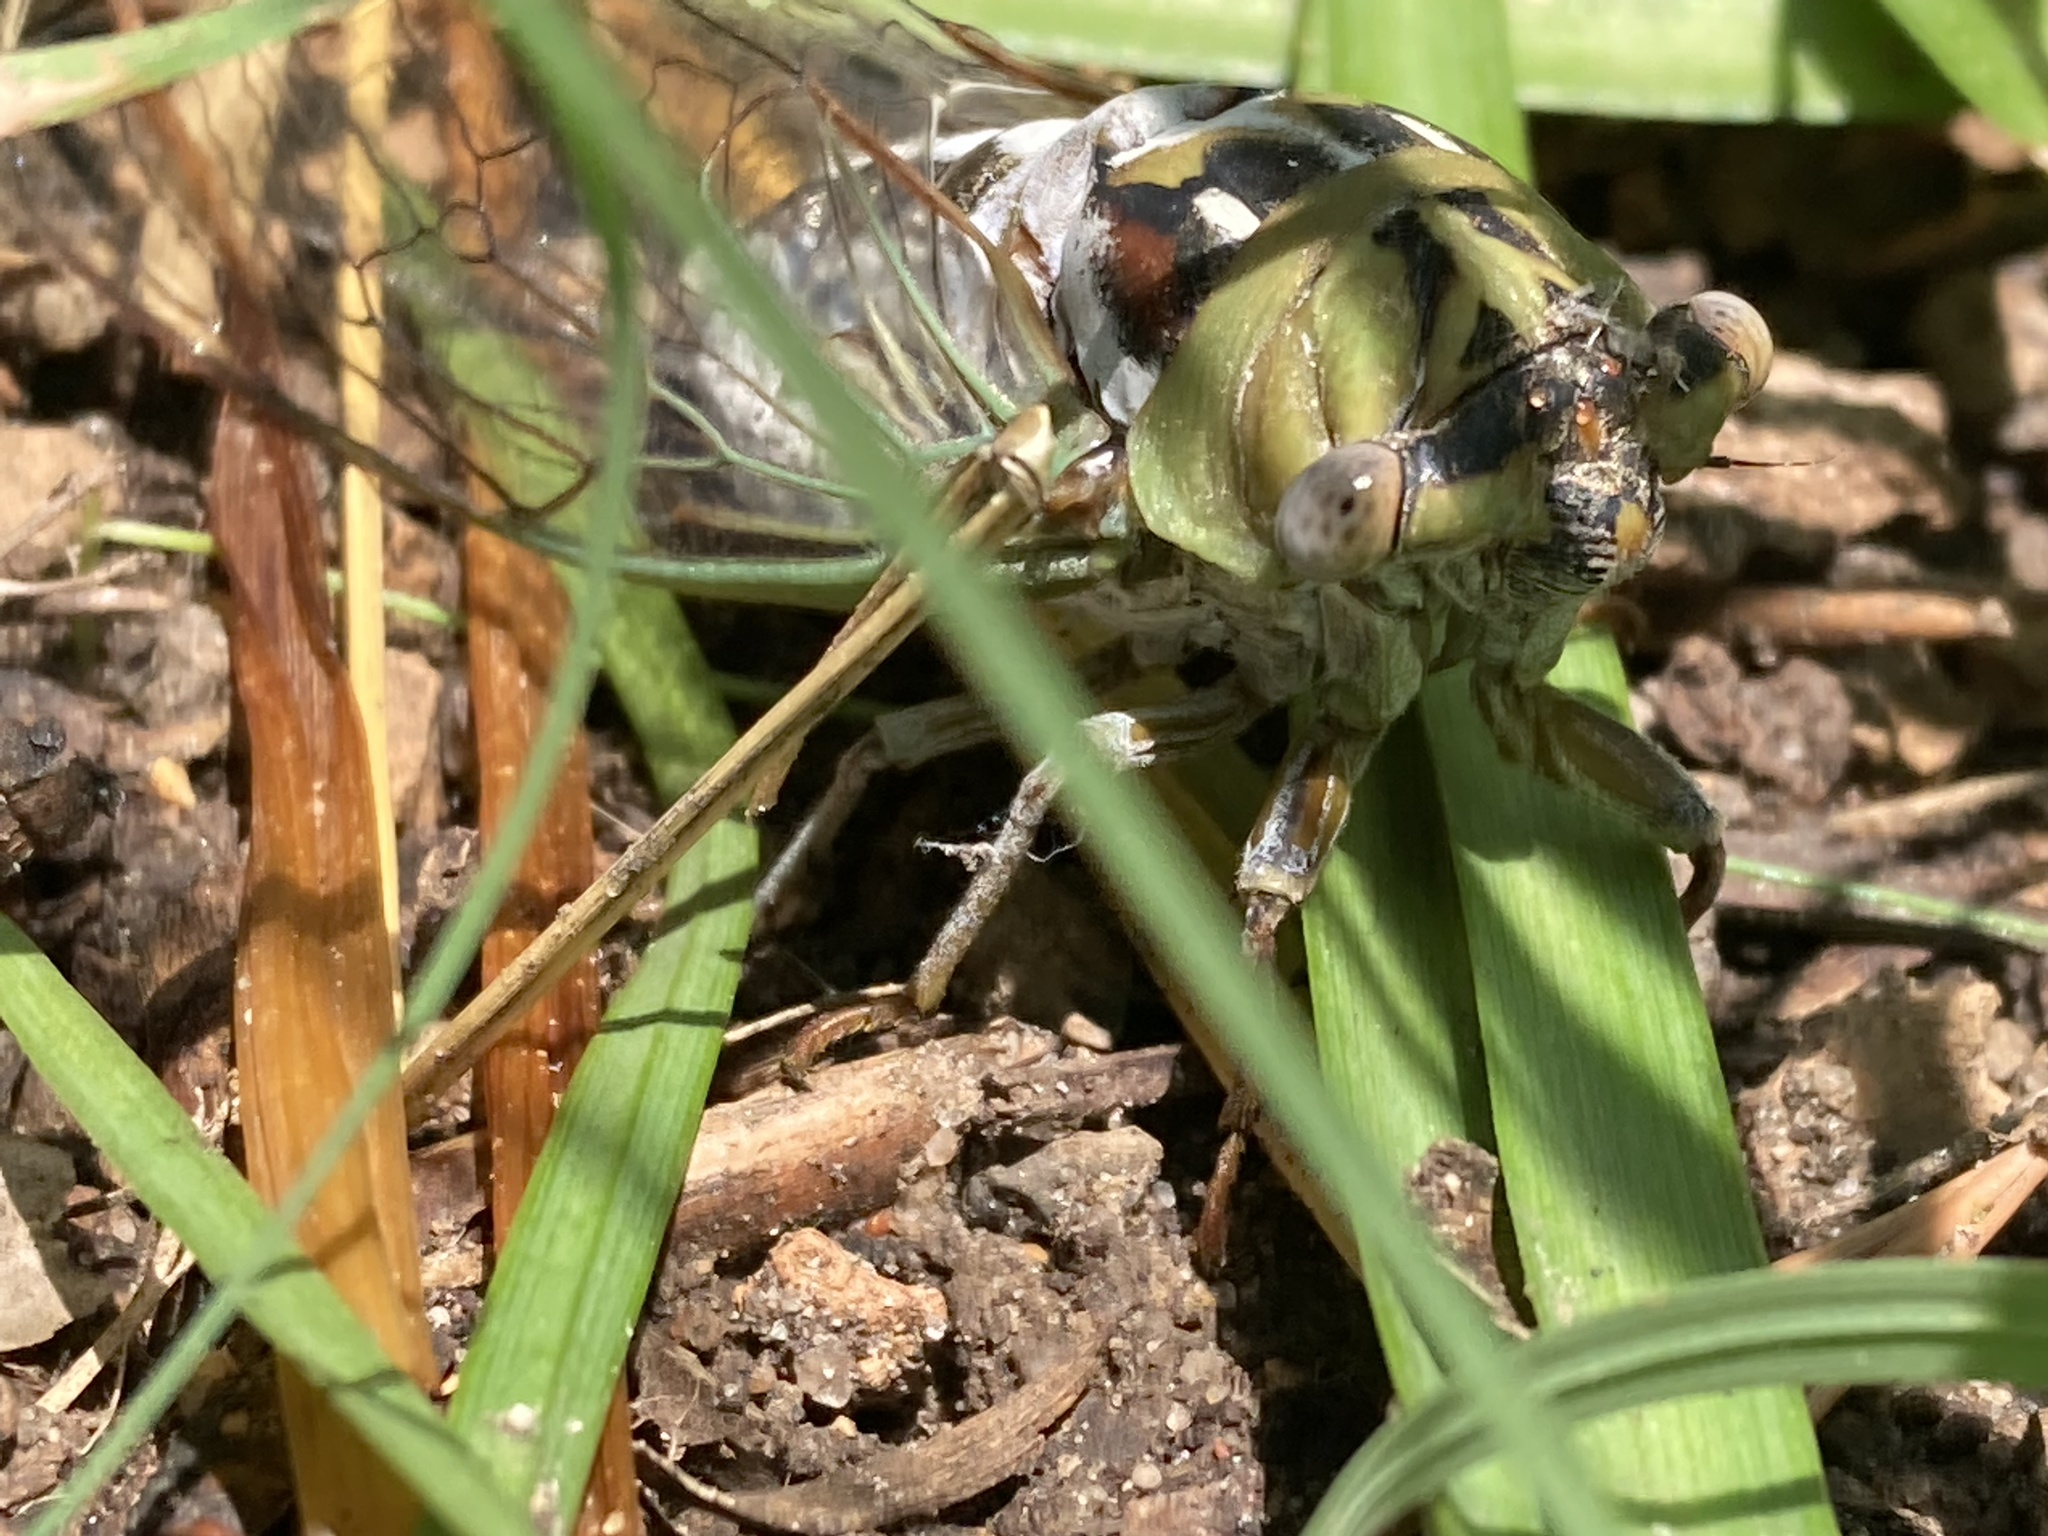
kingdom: Animalia
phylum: Arthropoda
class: Insecta
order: Hemiptera
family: Cicadidae
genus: Megatibicen
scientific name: Megatibicen dealbatus
